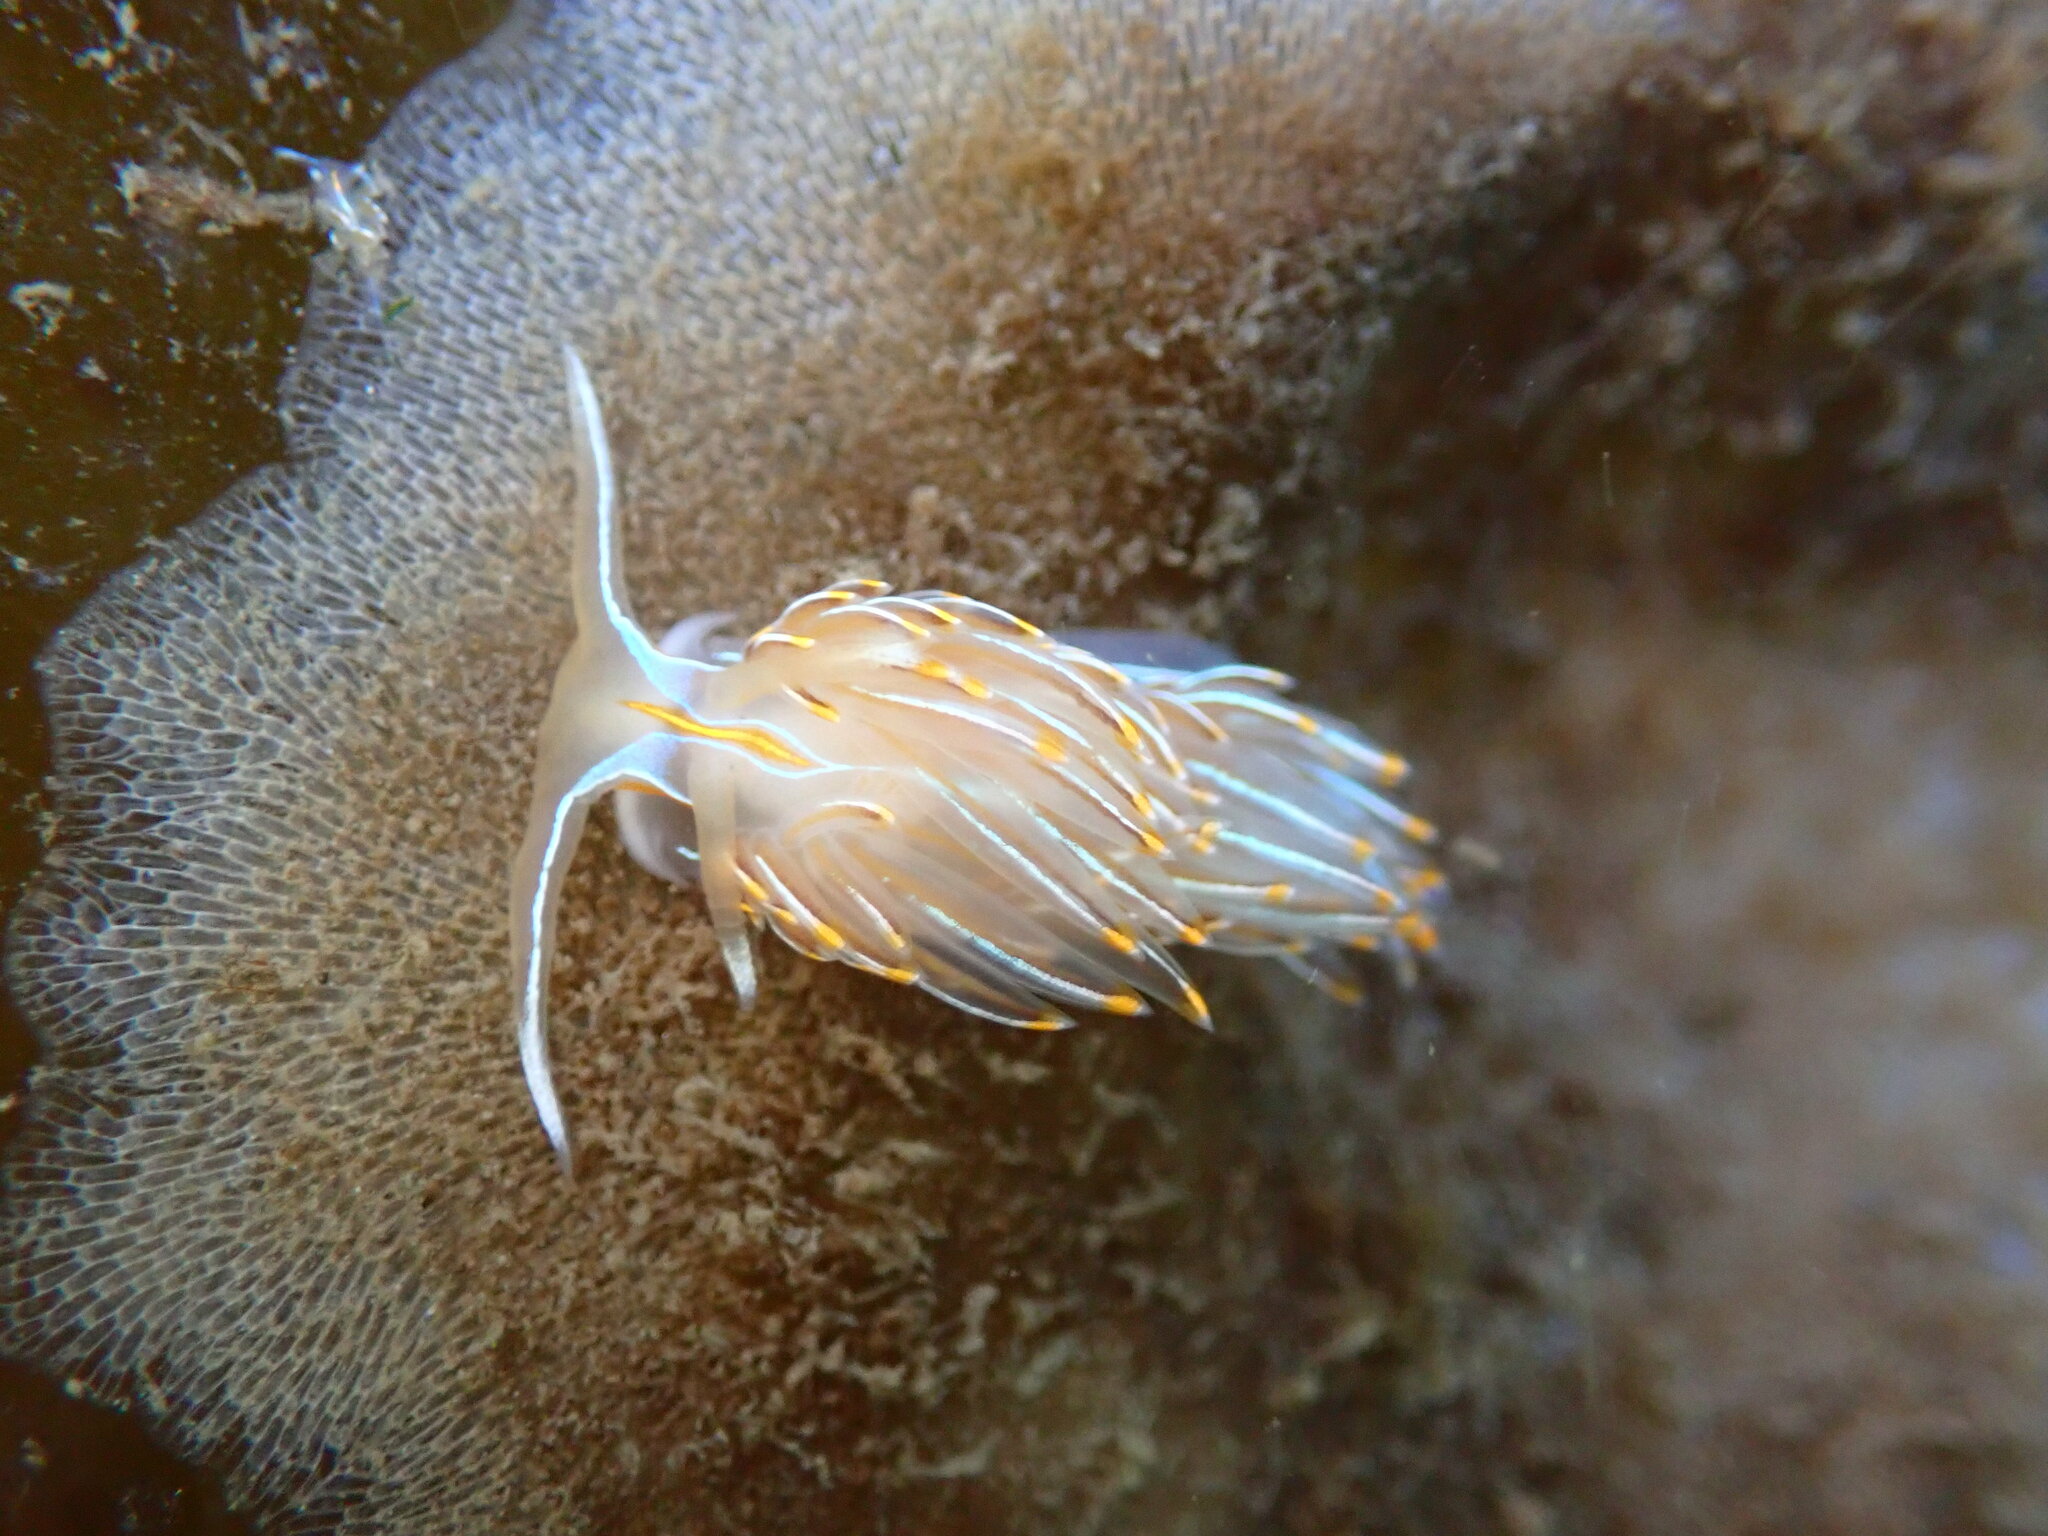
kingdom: Animalia
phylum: Mollusca
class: Gastropoda
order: Nudibranchia
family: Myrrhinidae
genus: Hermissenda
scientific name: Hermissenda crassicornis
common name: Hermissenda
